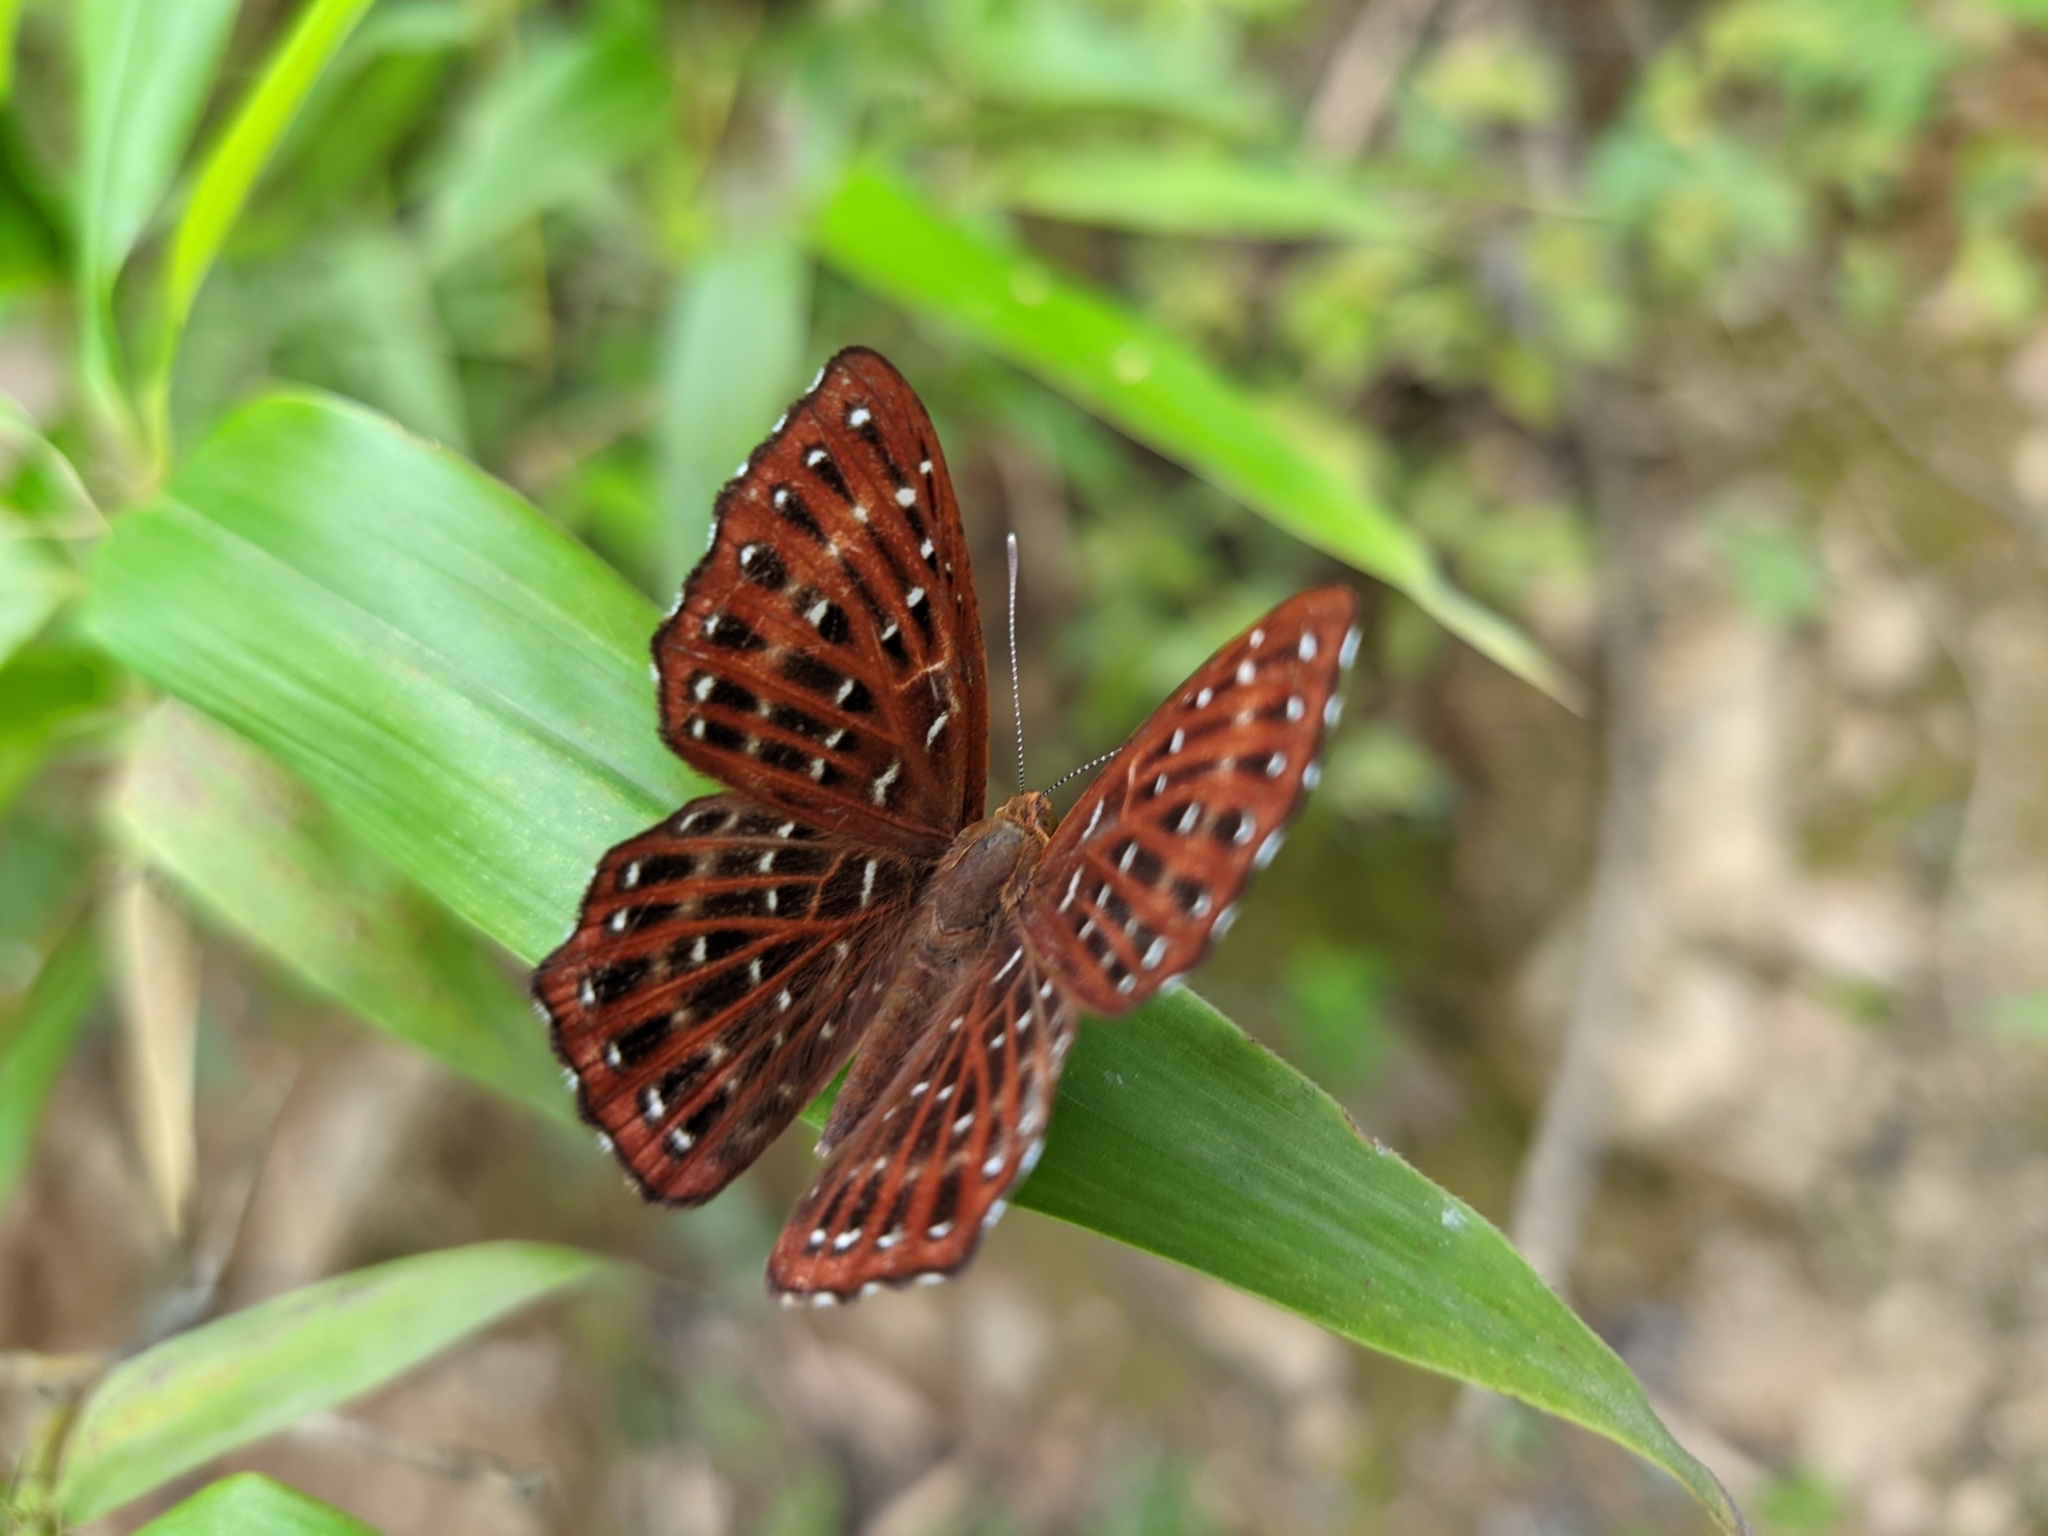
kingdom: Animalia
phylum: Arthropoda
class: Insecta
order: Lepidoptera
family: Riodinidae
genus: Zemeros
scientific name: Zemeros flegyas
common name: Punchinello
